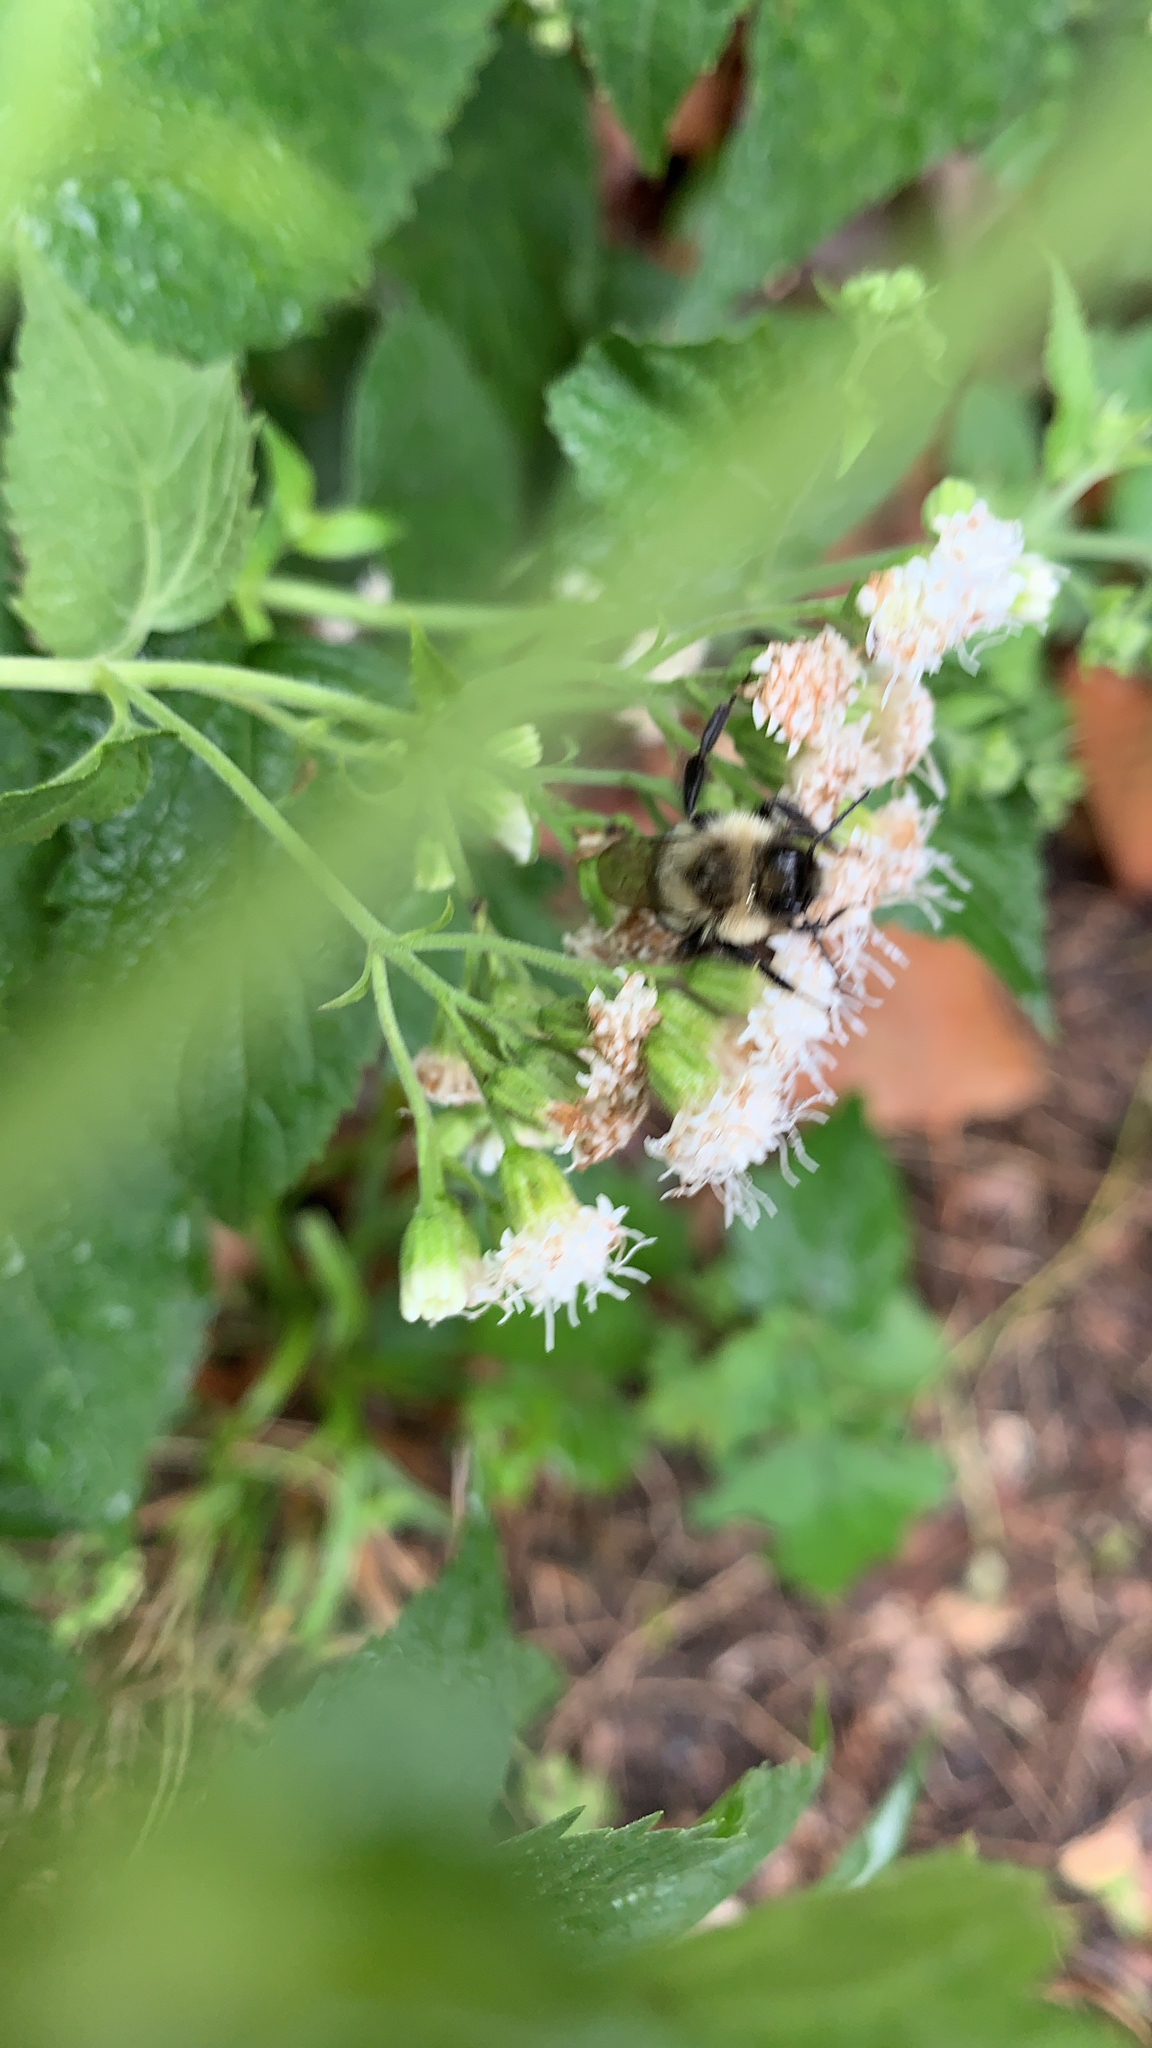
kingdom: Animalia
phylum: Arthropoda
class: Insecta
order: Hymenoptera
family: Apidae
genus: Bombus
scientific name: Bombus impatiens
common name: Common eastern bumble bee
